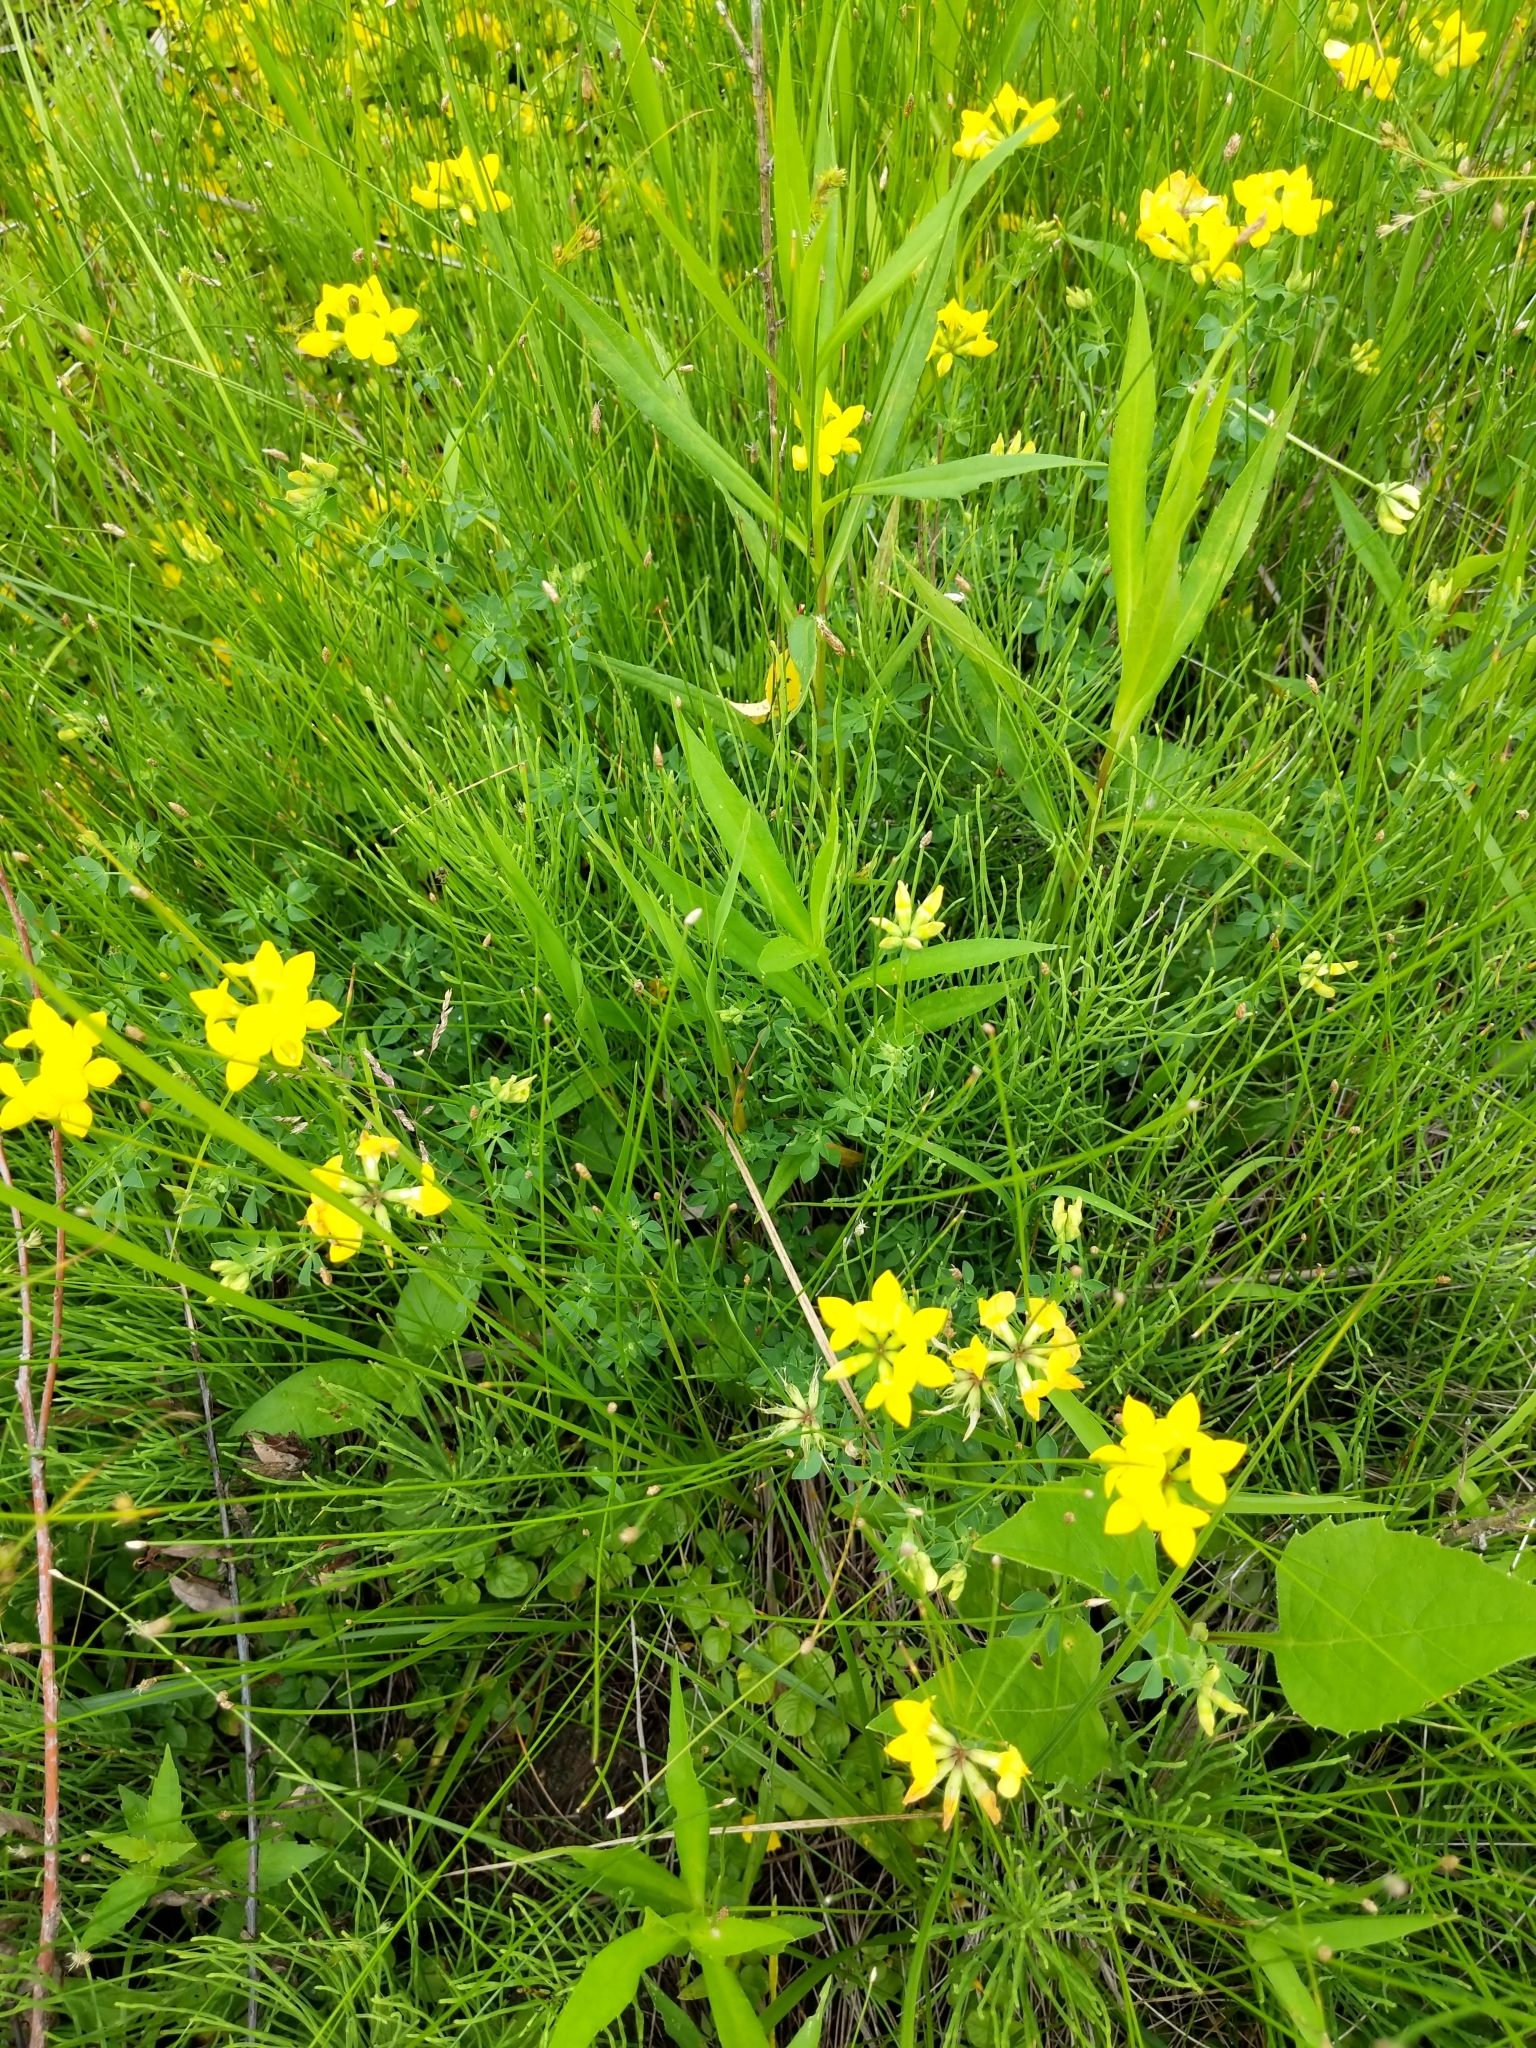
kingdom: Plantae
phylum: Tracheophyta
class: Magnoliopsida
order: Fabales
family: Fabaceae
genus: Lotus
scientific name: Lotus corniculatus
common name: Common bird's-foot-trefoil
